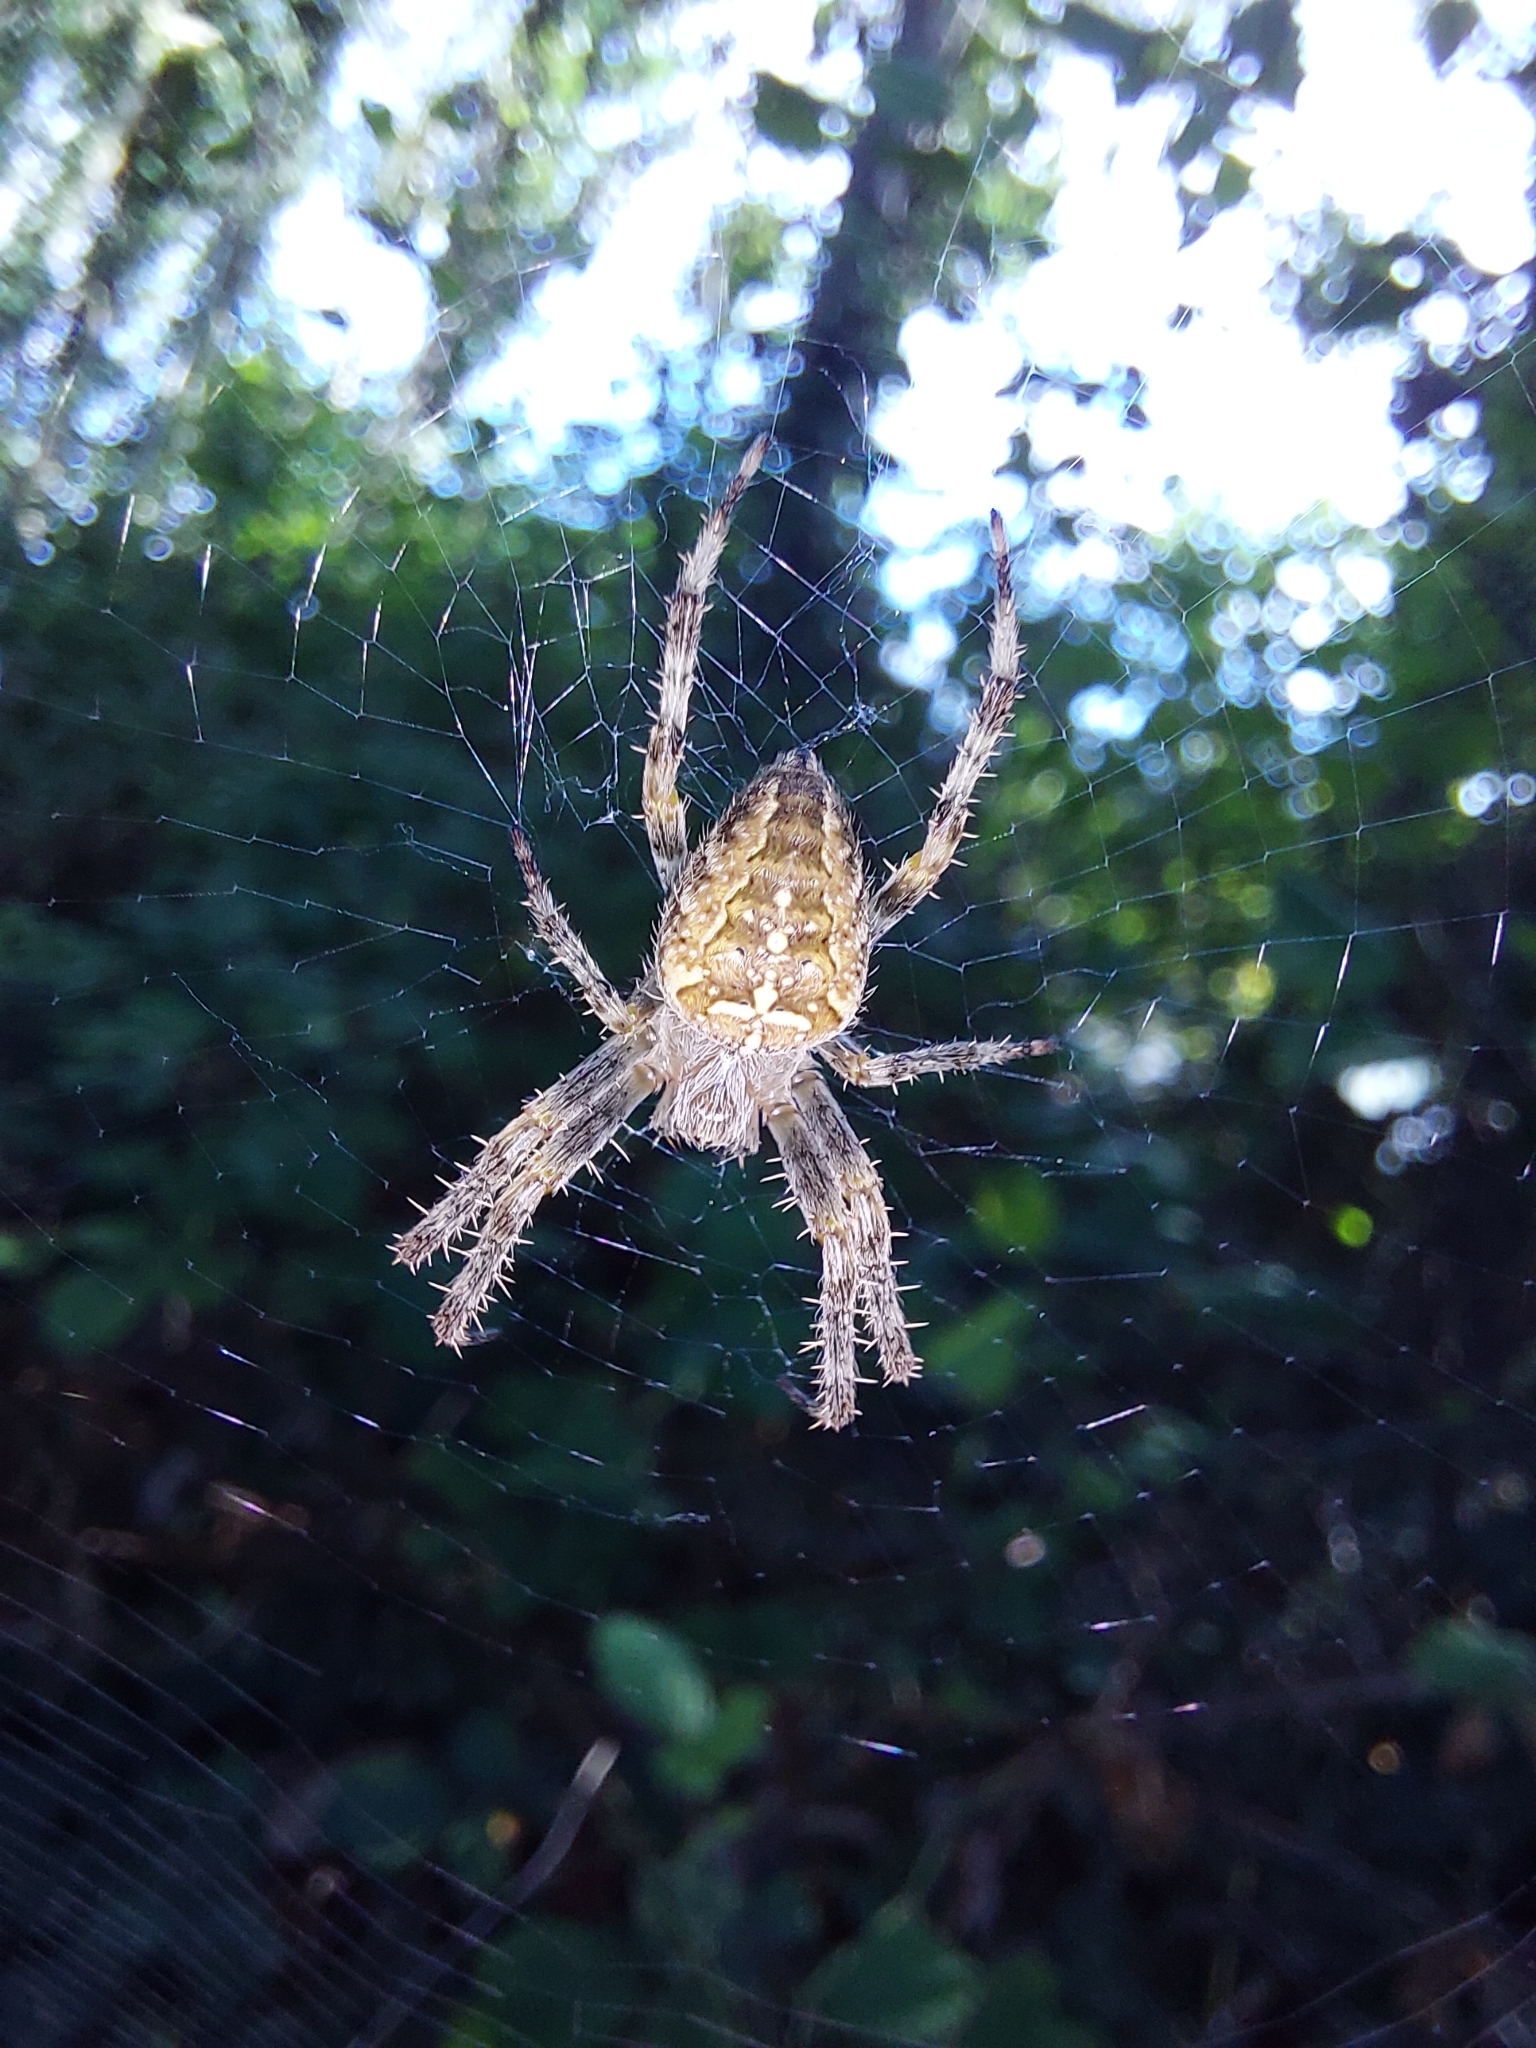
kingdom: Animalia
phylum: Arthropoda
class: Arachnida
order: Araneae
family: Araneidae
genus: Araneus
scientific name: Araneus diadematus
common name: Cross orbweaver
